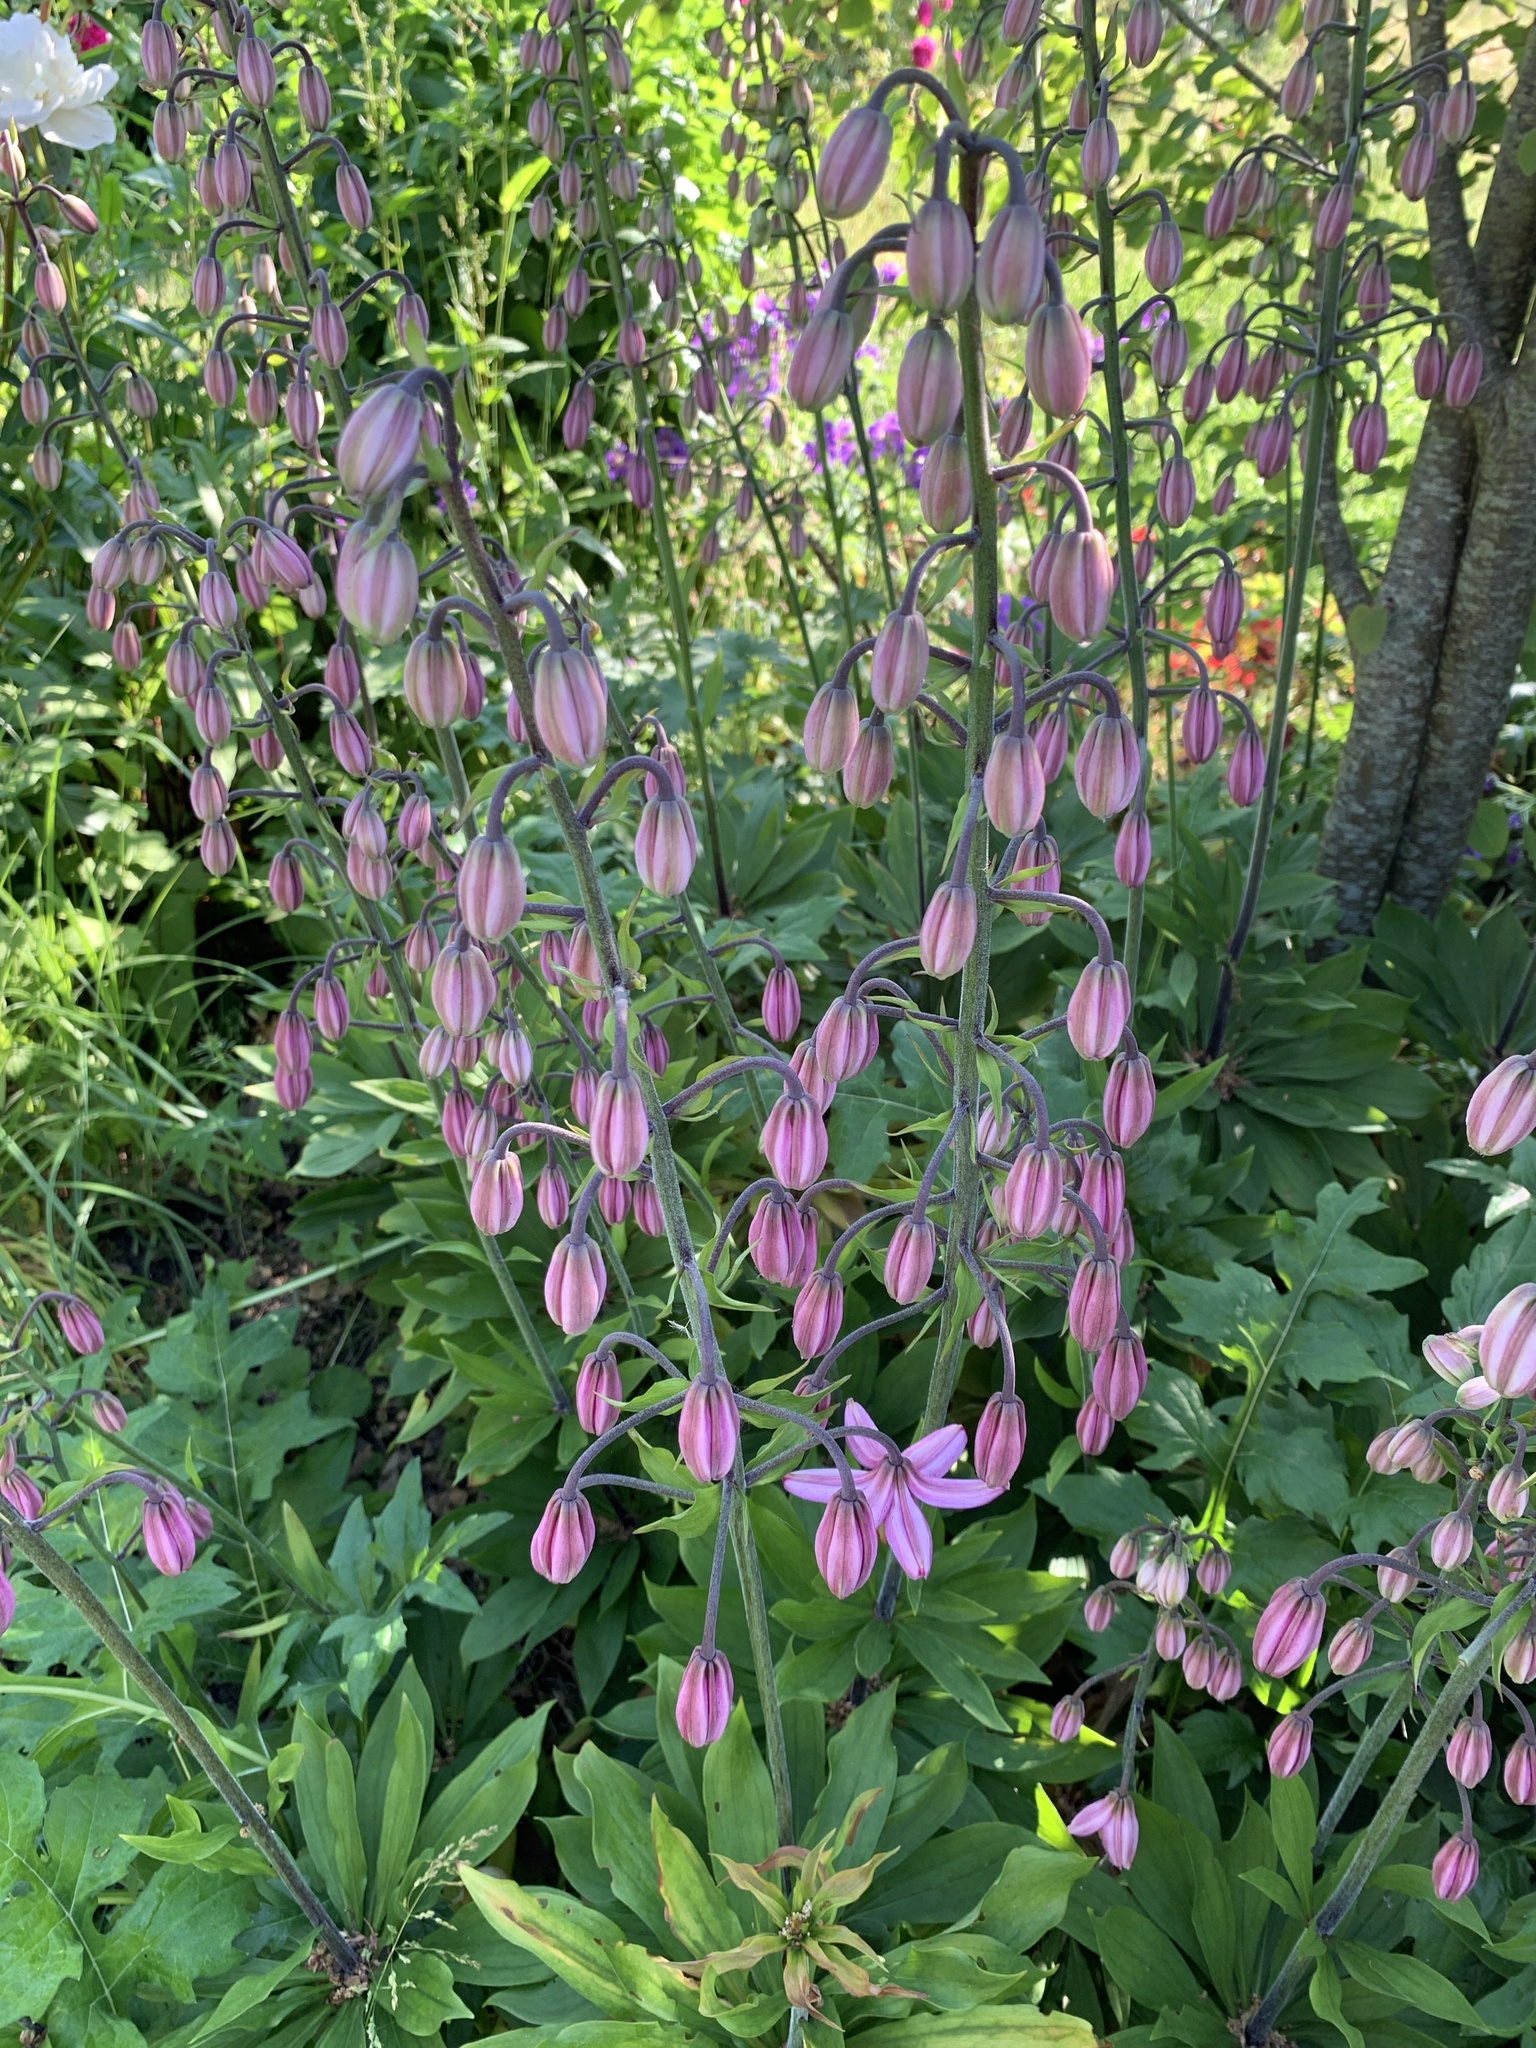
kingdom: Plantae
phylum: Tracheophyta
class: Liliopsida
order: Liliales
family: Liliaceae
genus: Lilium
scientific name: Lilium martagon
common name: Martagon lily
